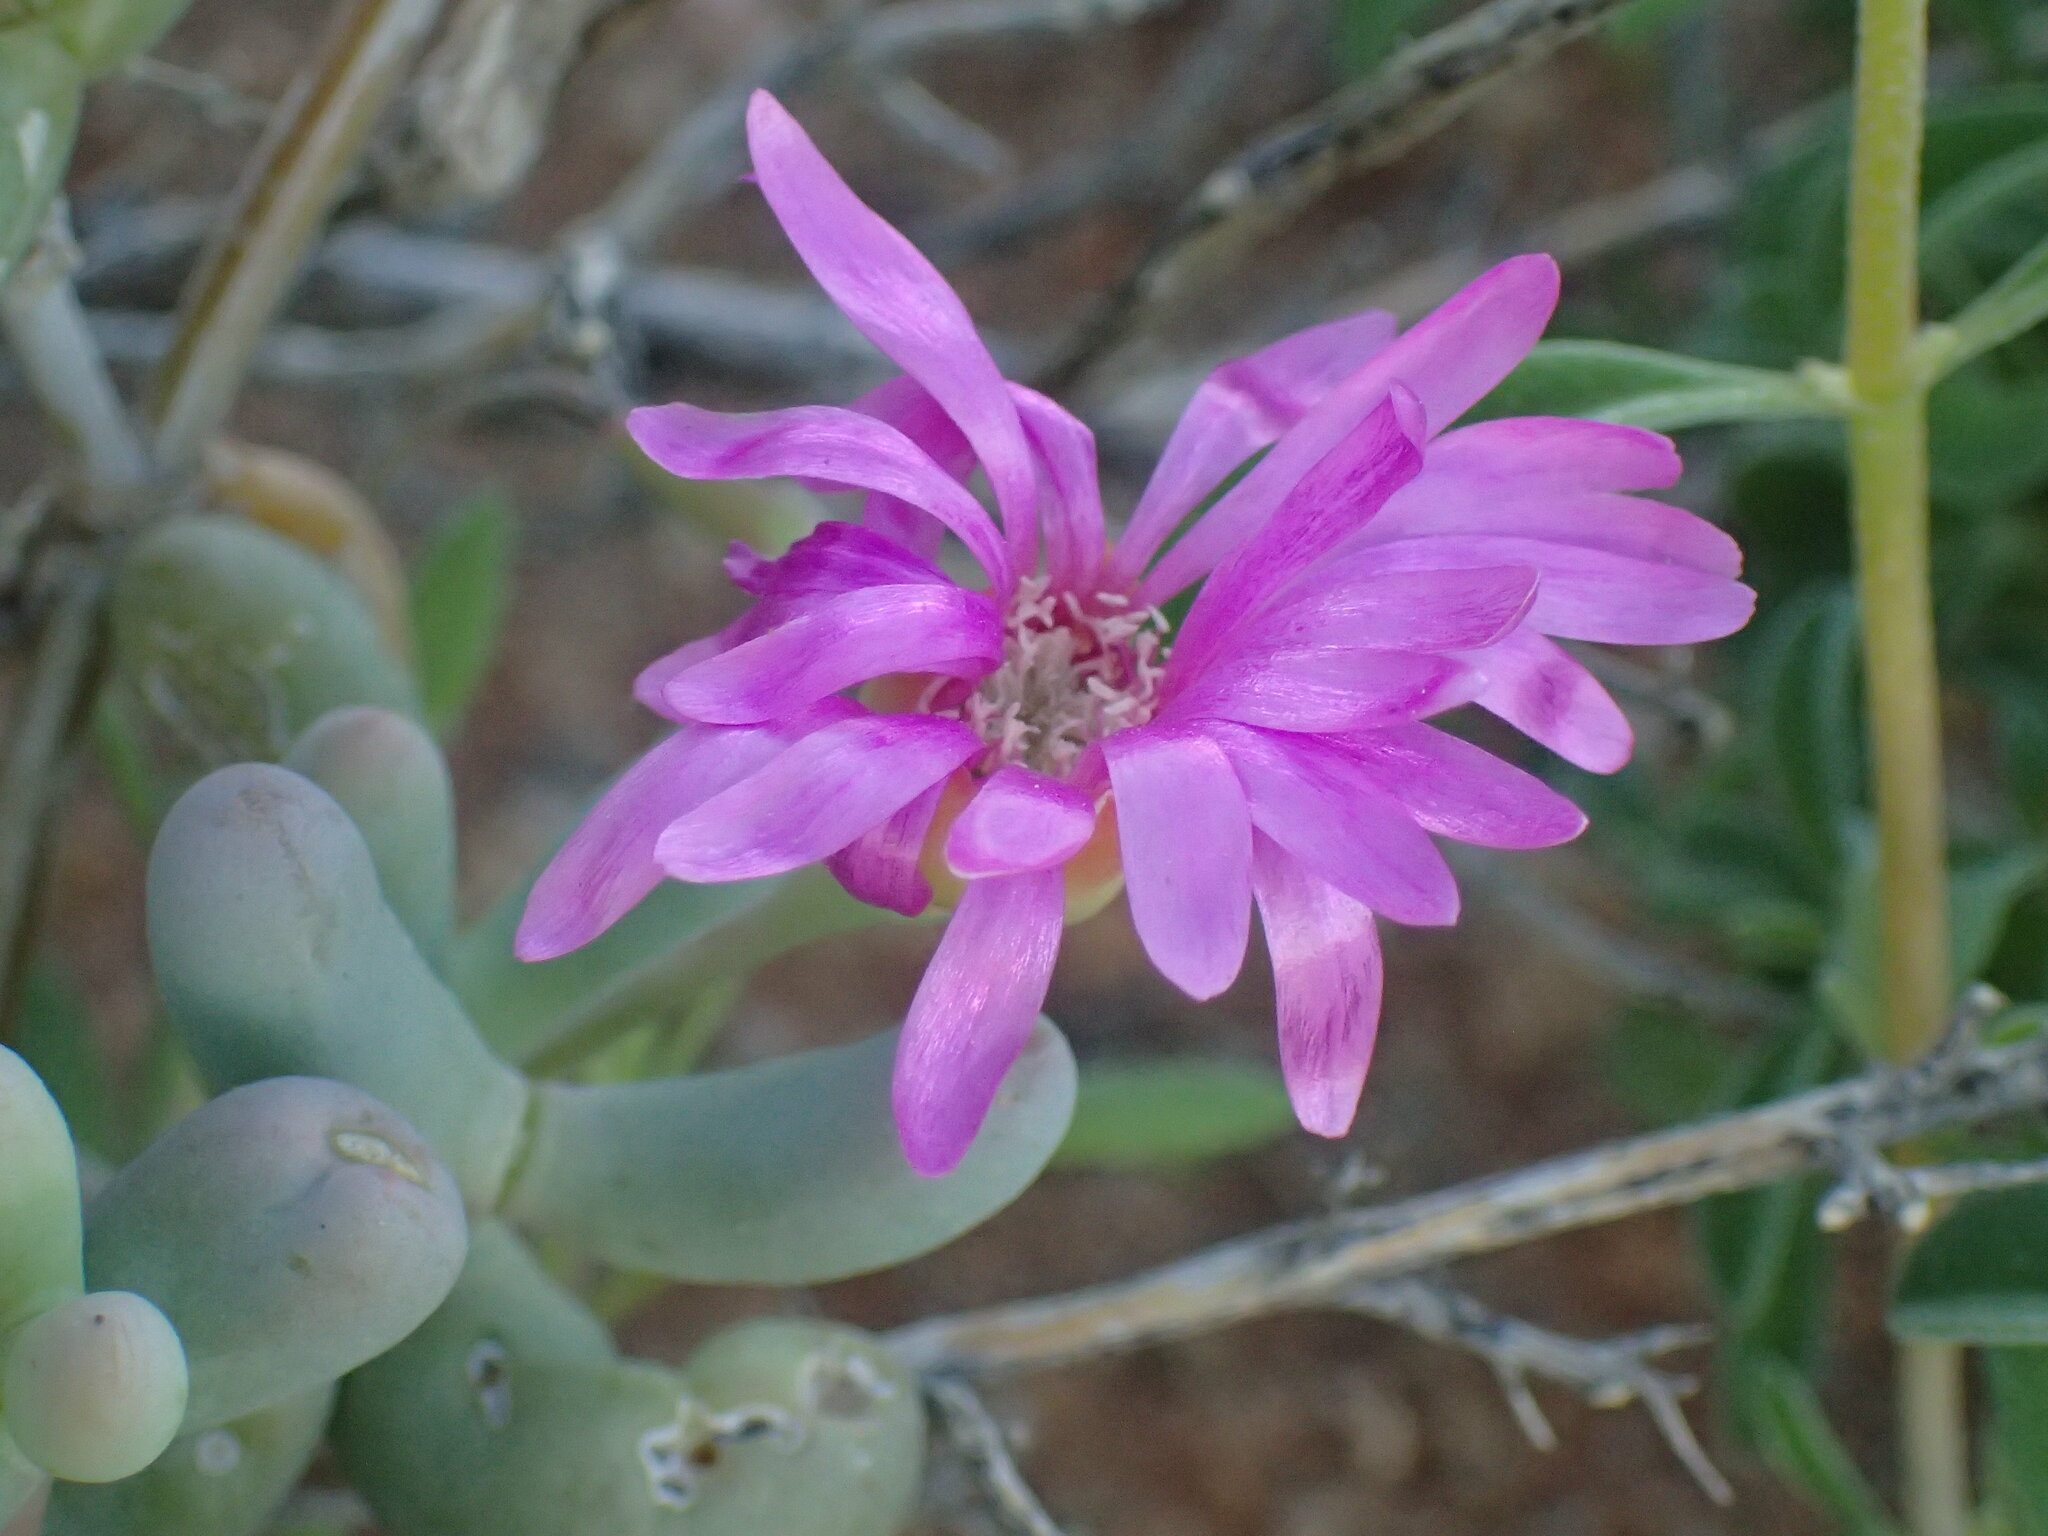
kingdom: Plantae
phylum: Tracheophyta
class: Magnoliopsida
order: Caryophyllales
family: Aizoaceae
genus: Lampranthus
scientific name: Lampranthus otzenianus
